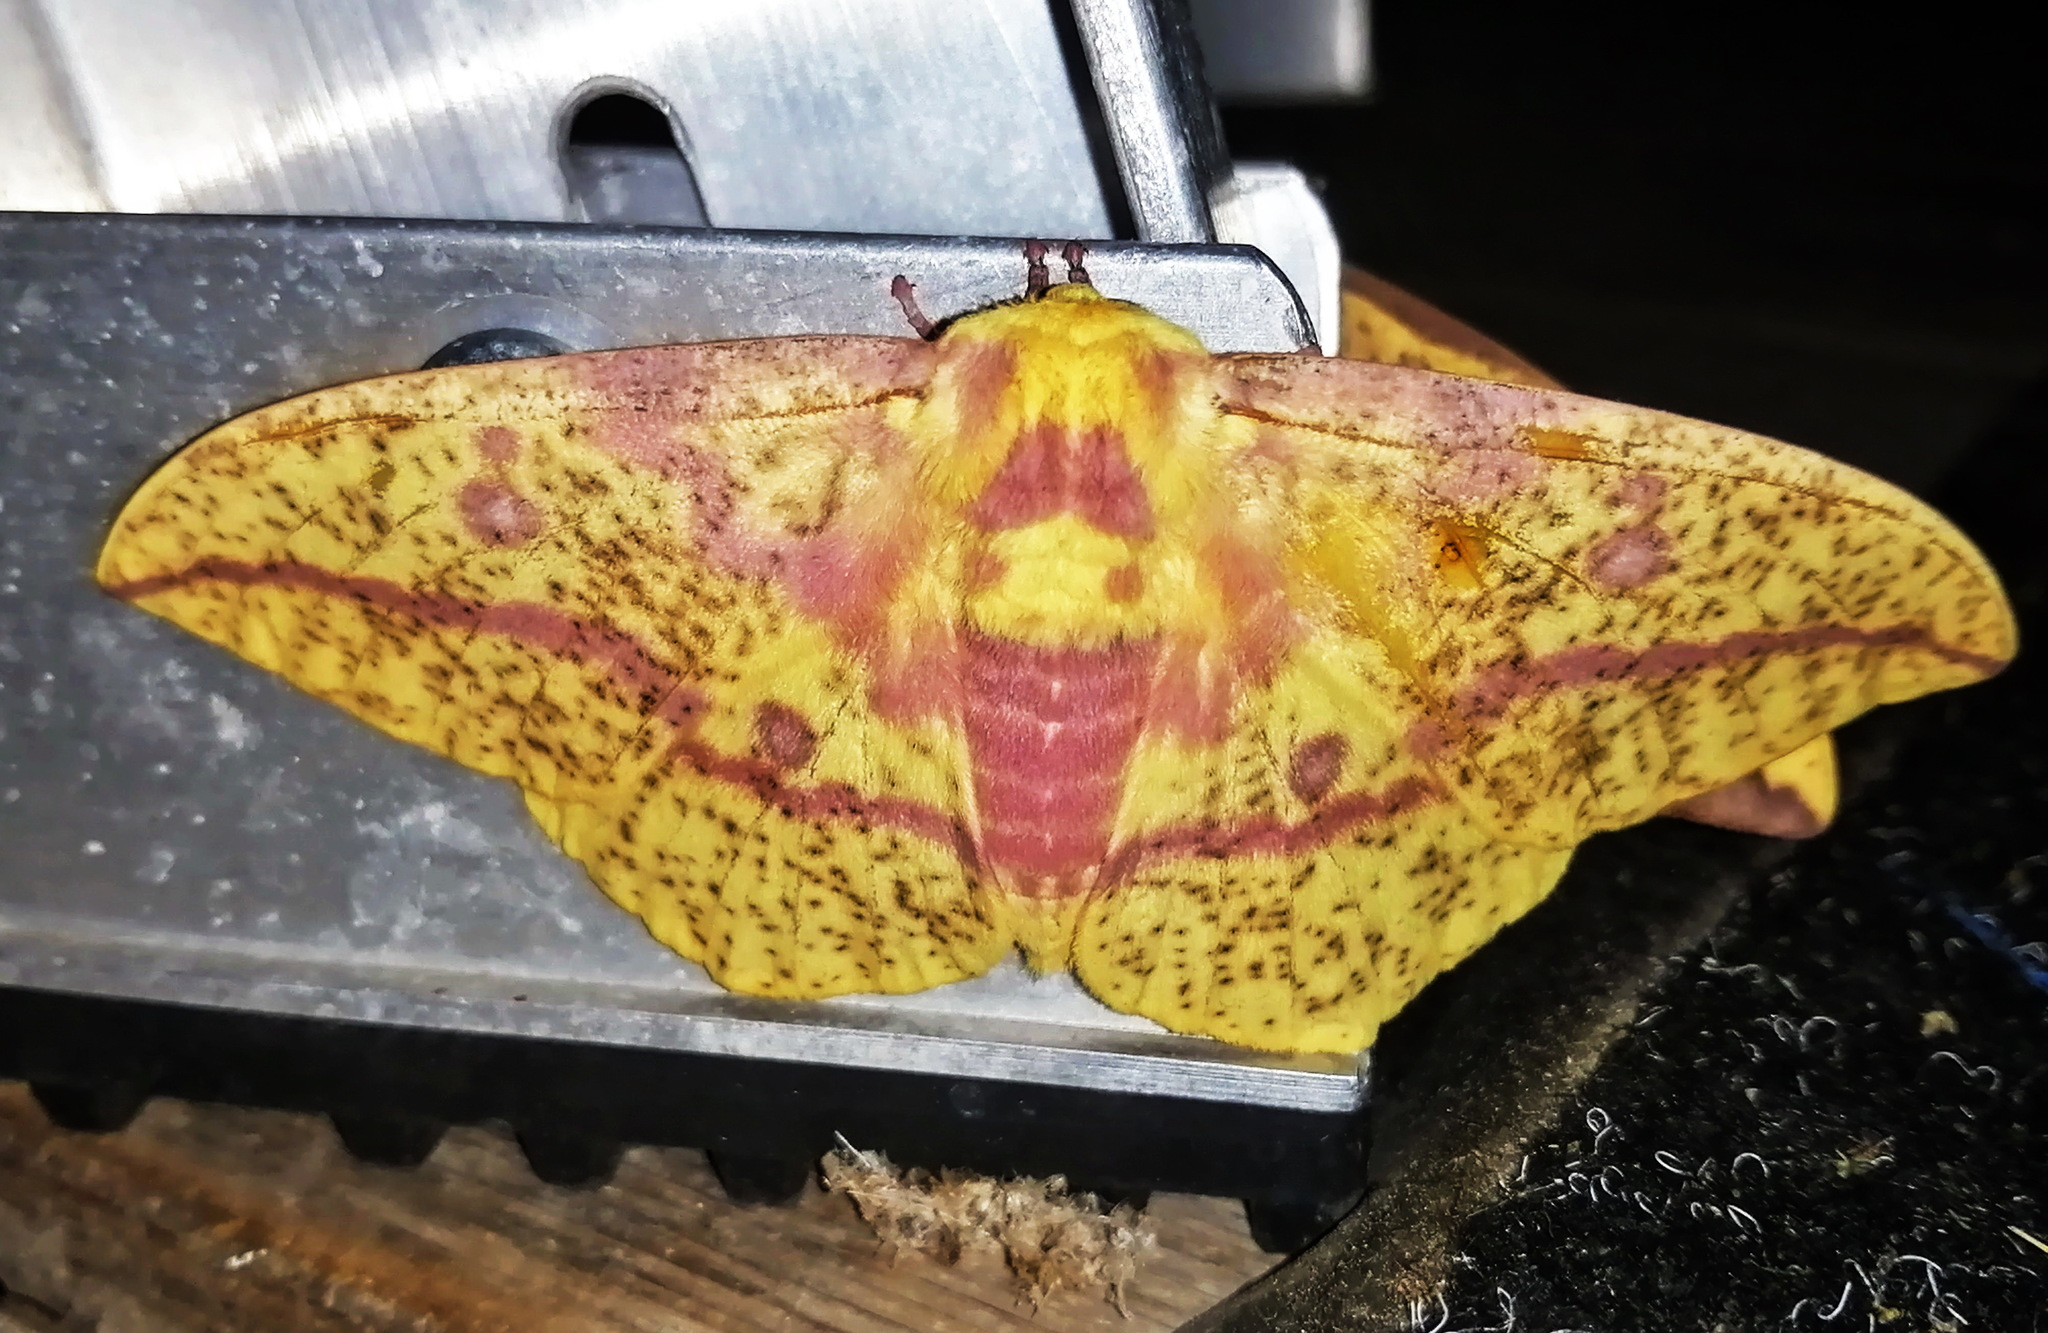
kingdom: Animalia
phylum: Arthropoda
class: Insecta
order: Lepidoptera
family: Saturniidae
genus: Eacles
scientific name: Eacles
